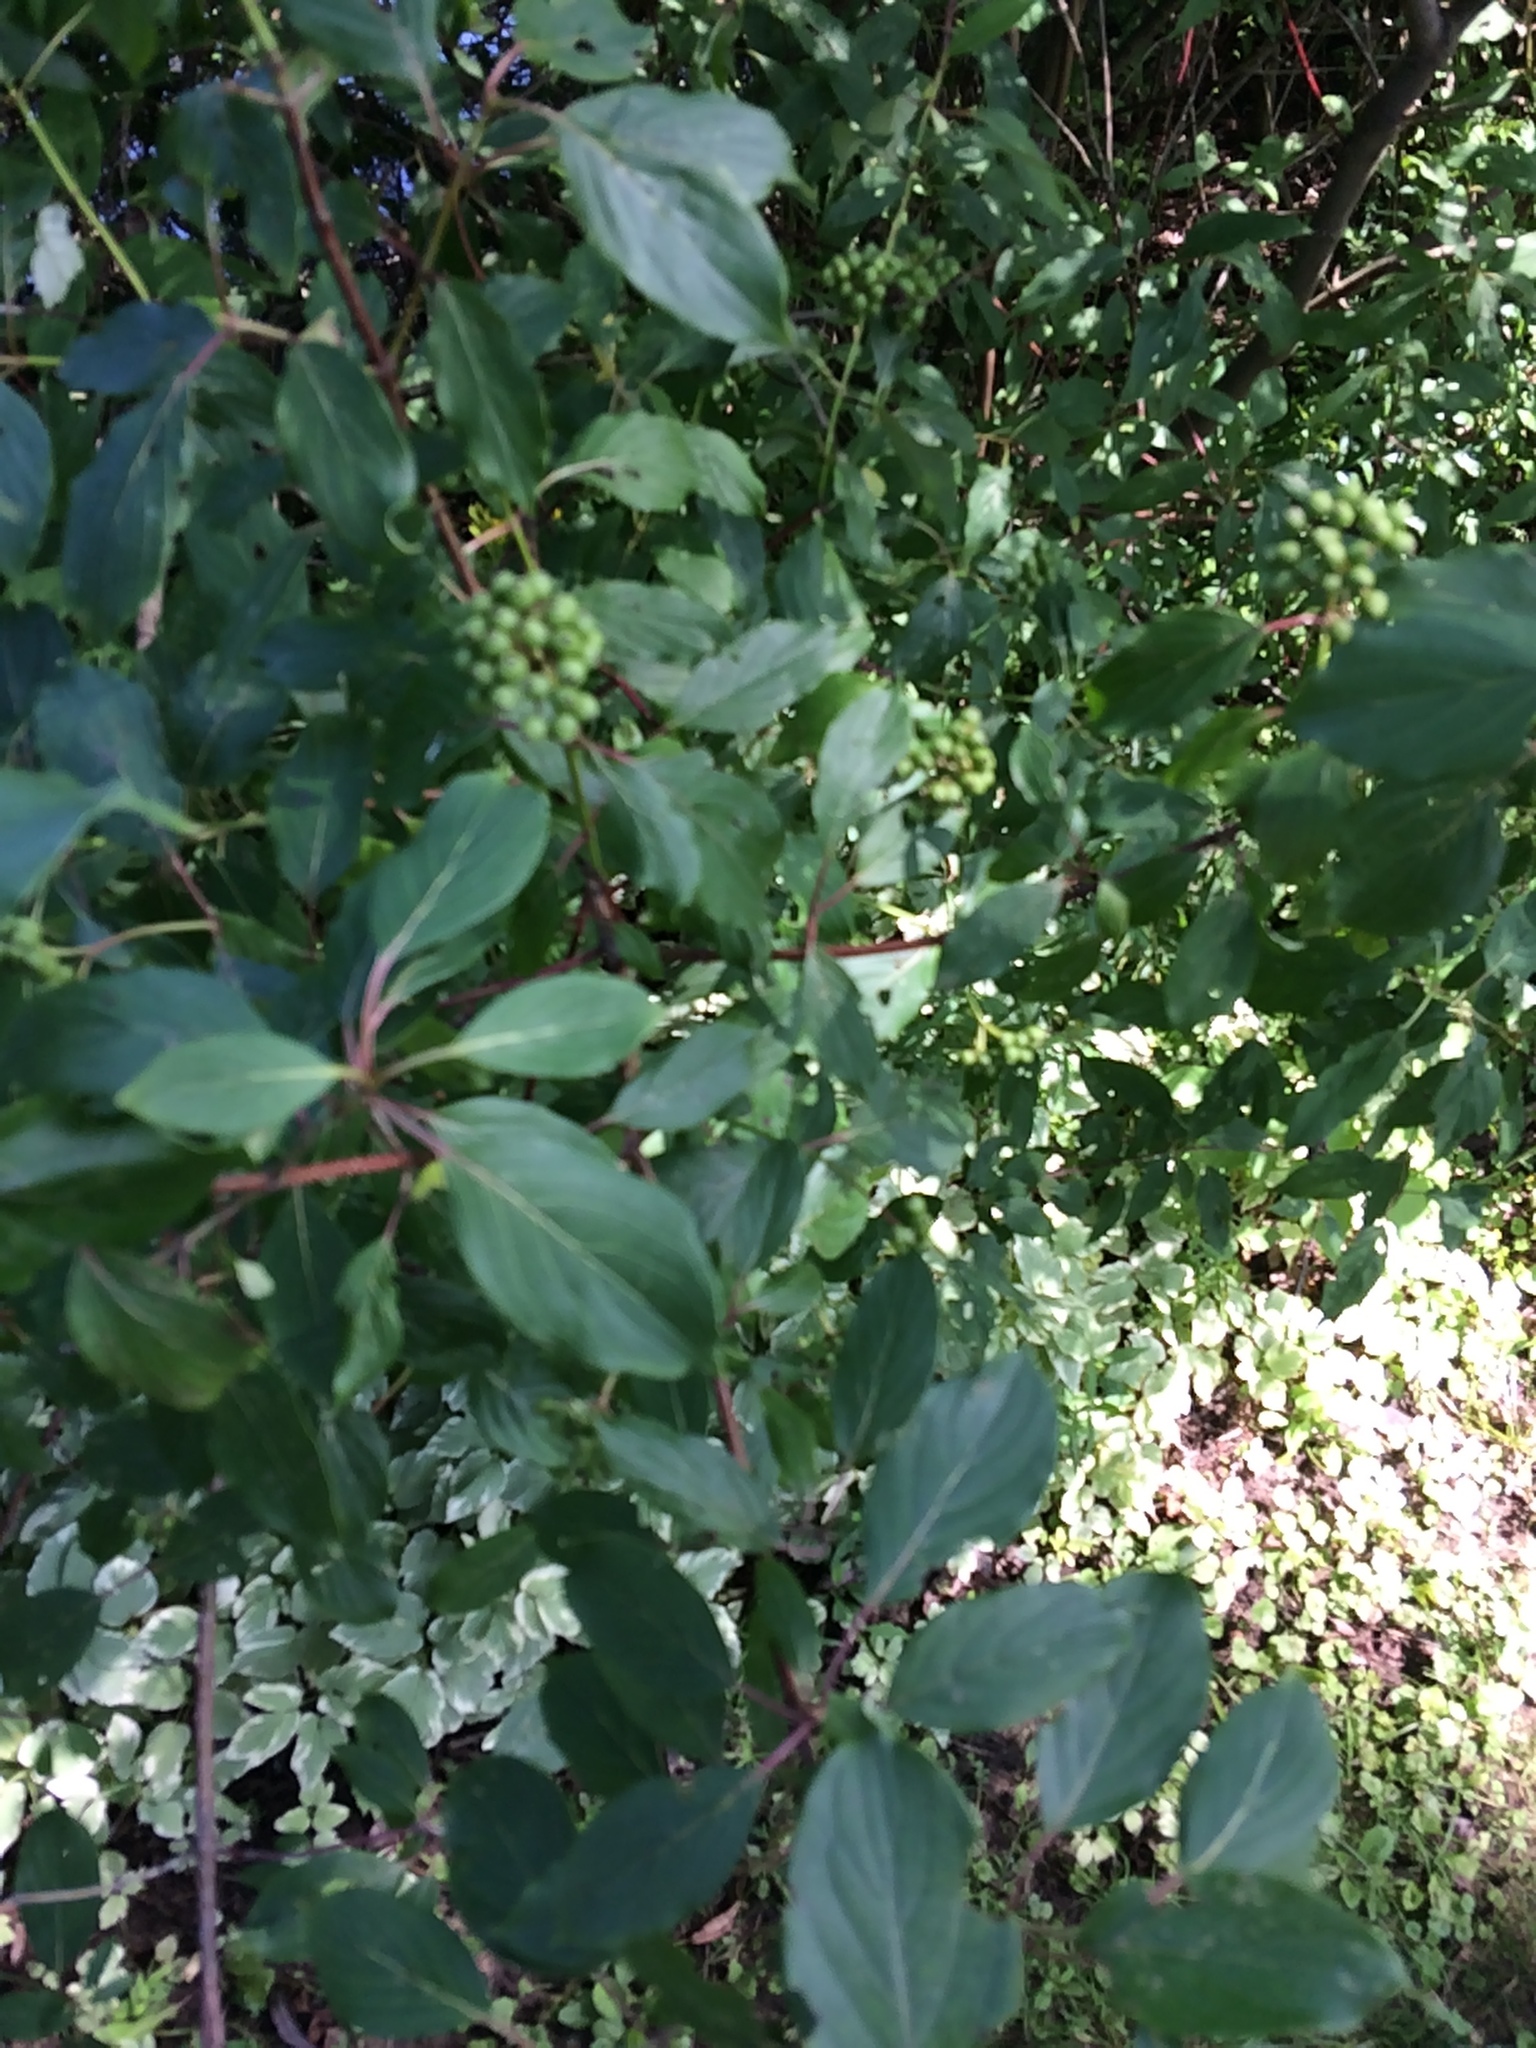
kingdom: Plantae
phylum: Tracheophyta
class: Magnoliopsida
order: Cornales
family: Cornaceae
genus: Cornus
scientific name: Cornus amomum
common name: Silky dogwood
